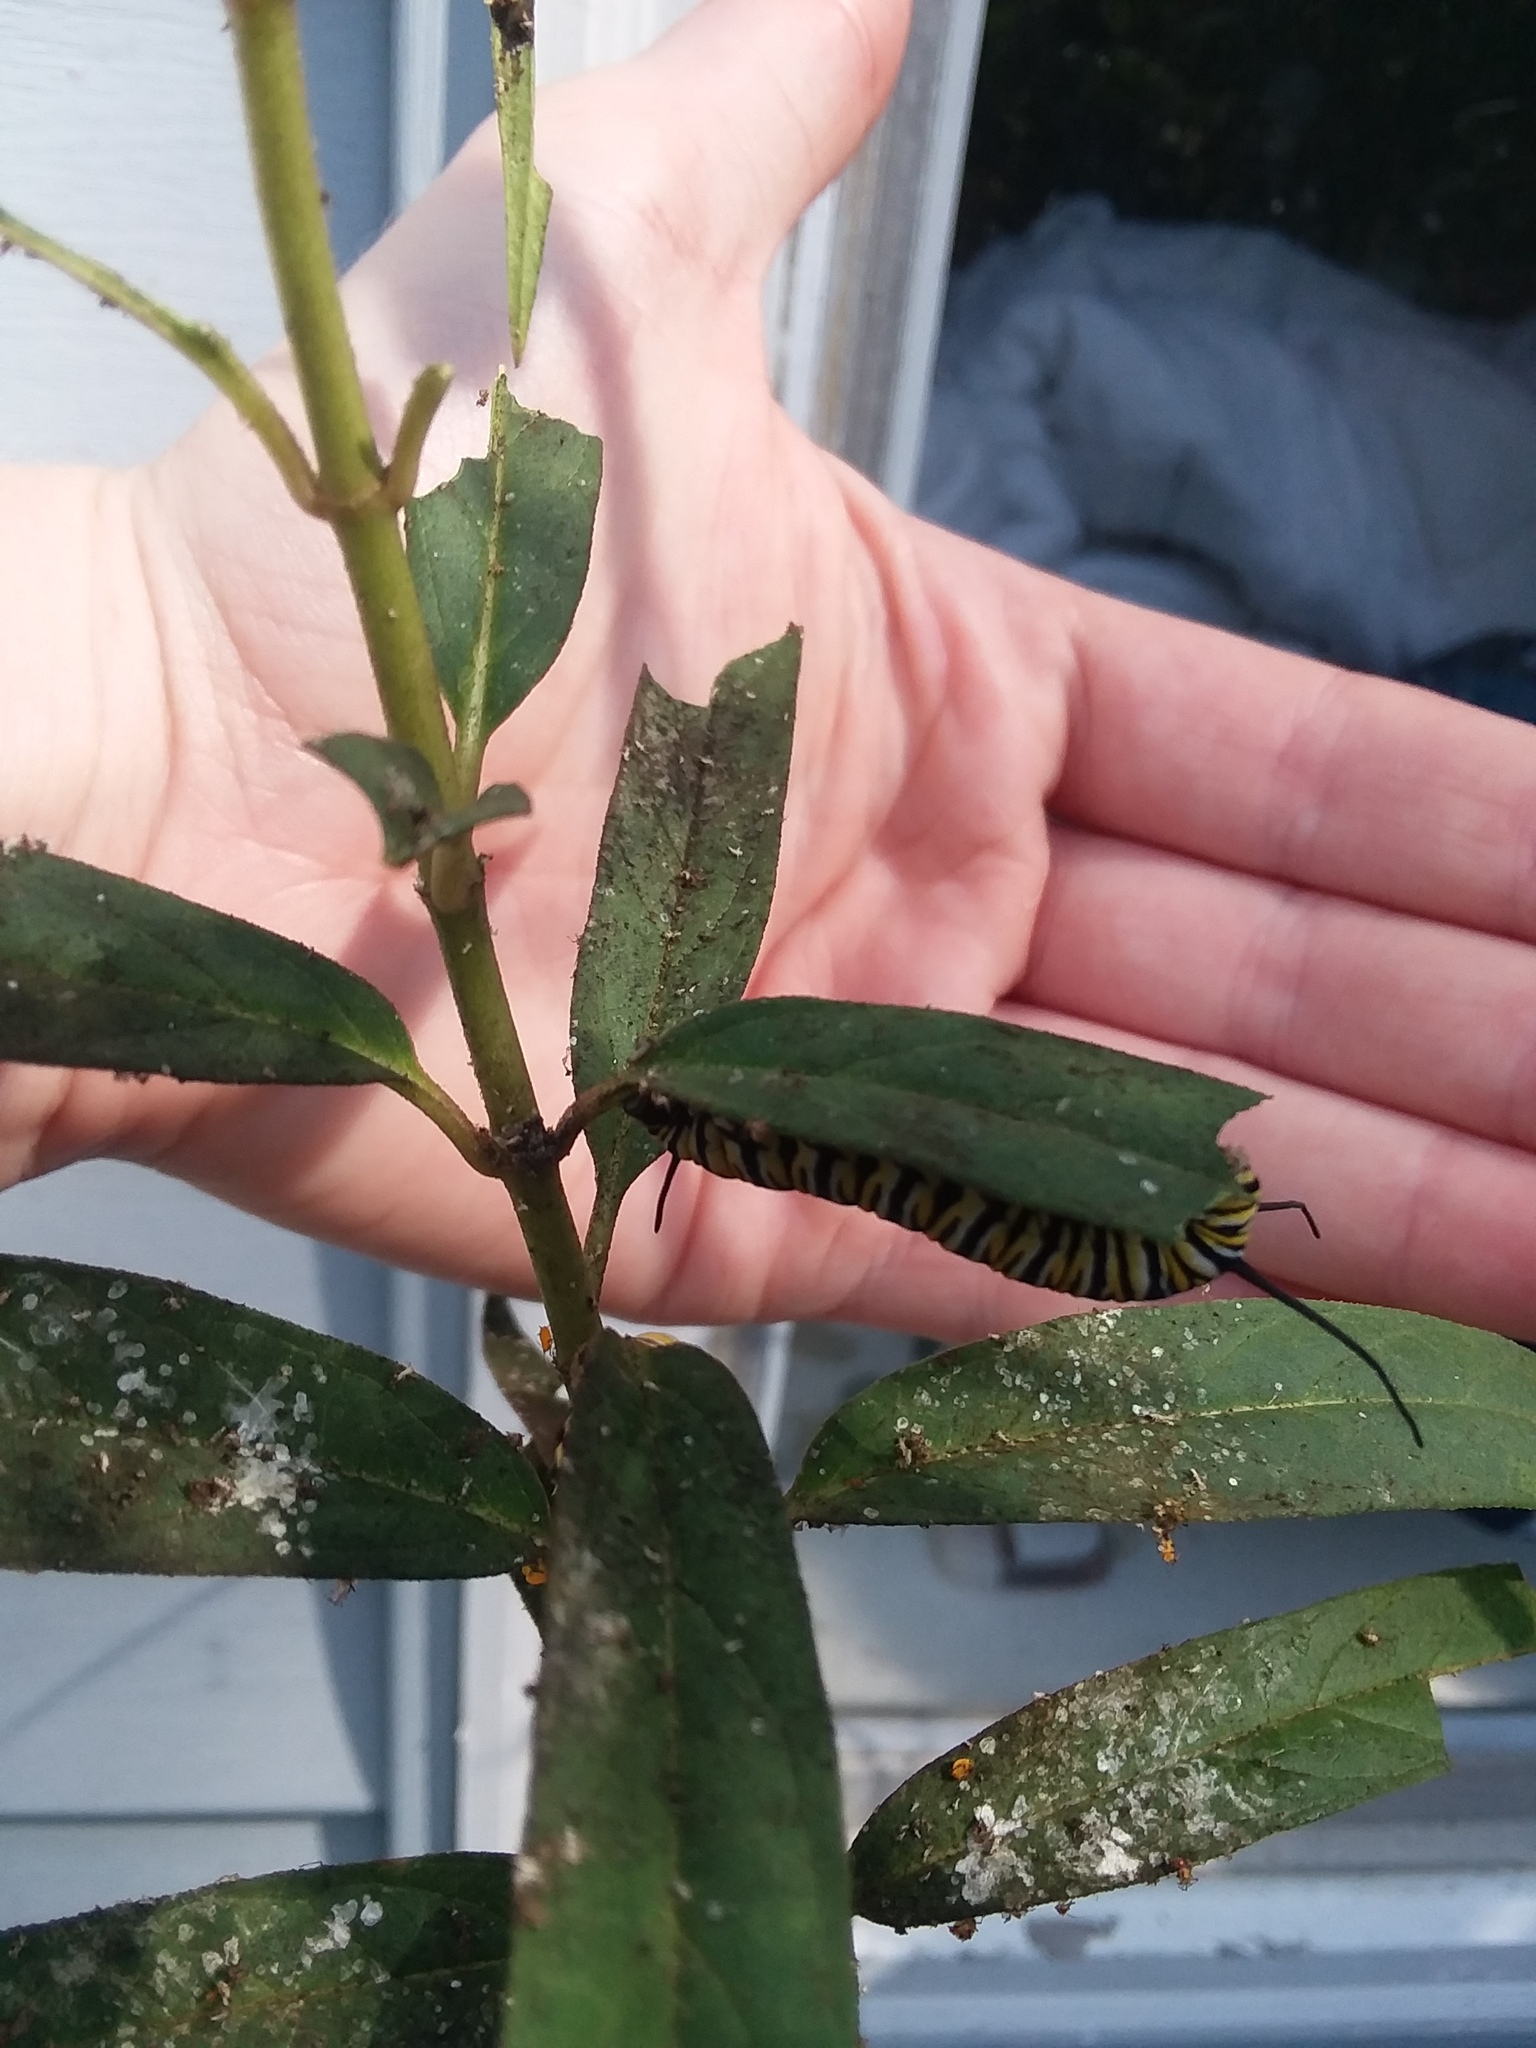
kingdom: Animalia
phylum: Arthropoda
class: Insecta
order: Lepidoptera
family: Nymphalidae
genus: Danaus
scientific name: Danaus plexippus
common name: Monarch
